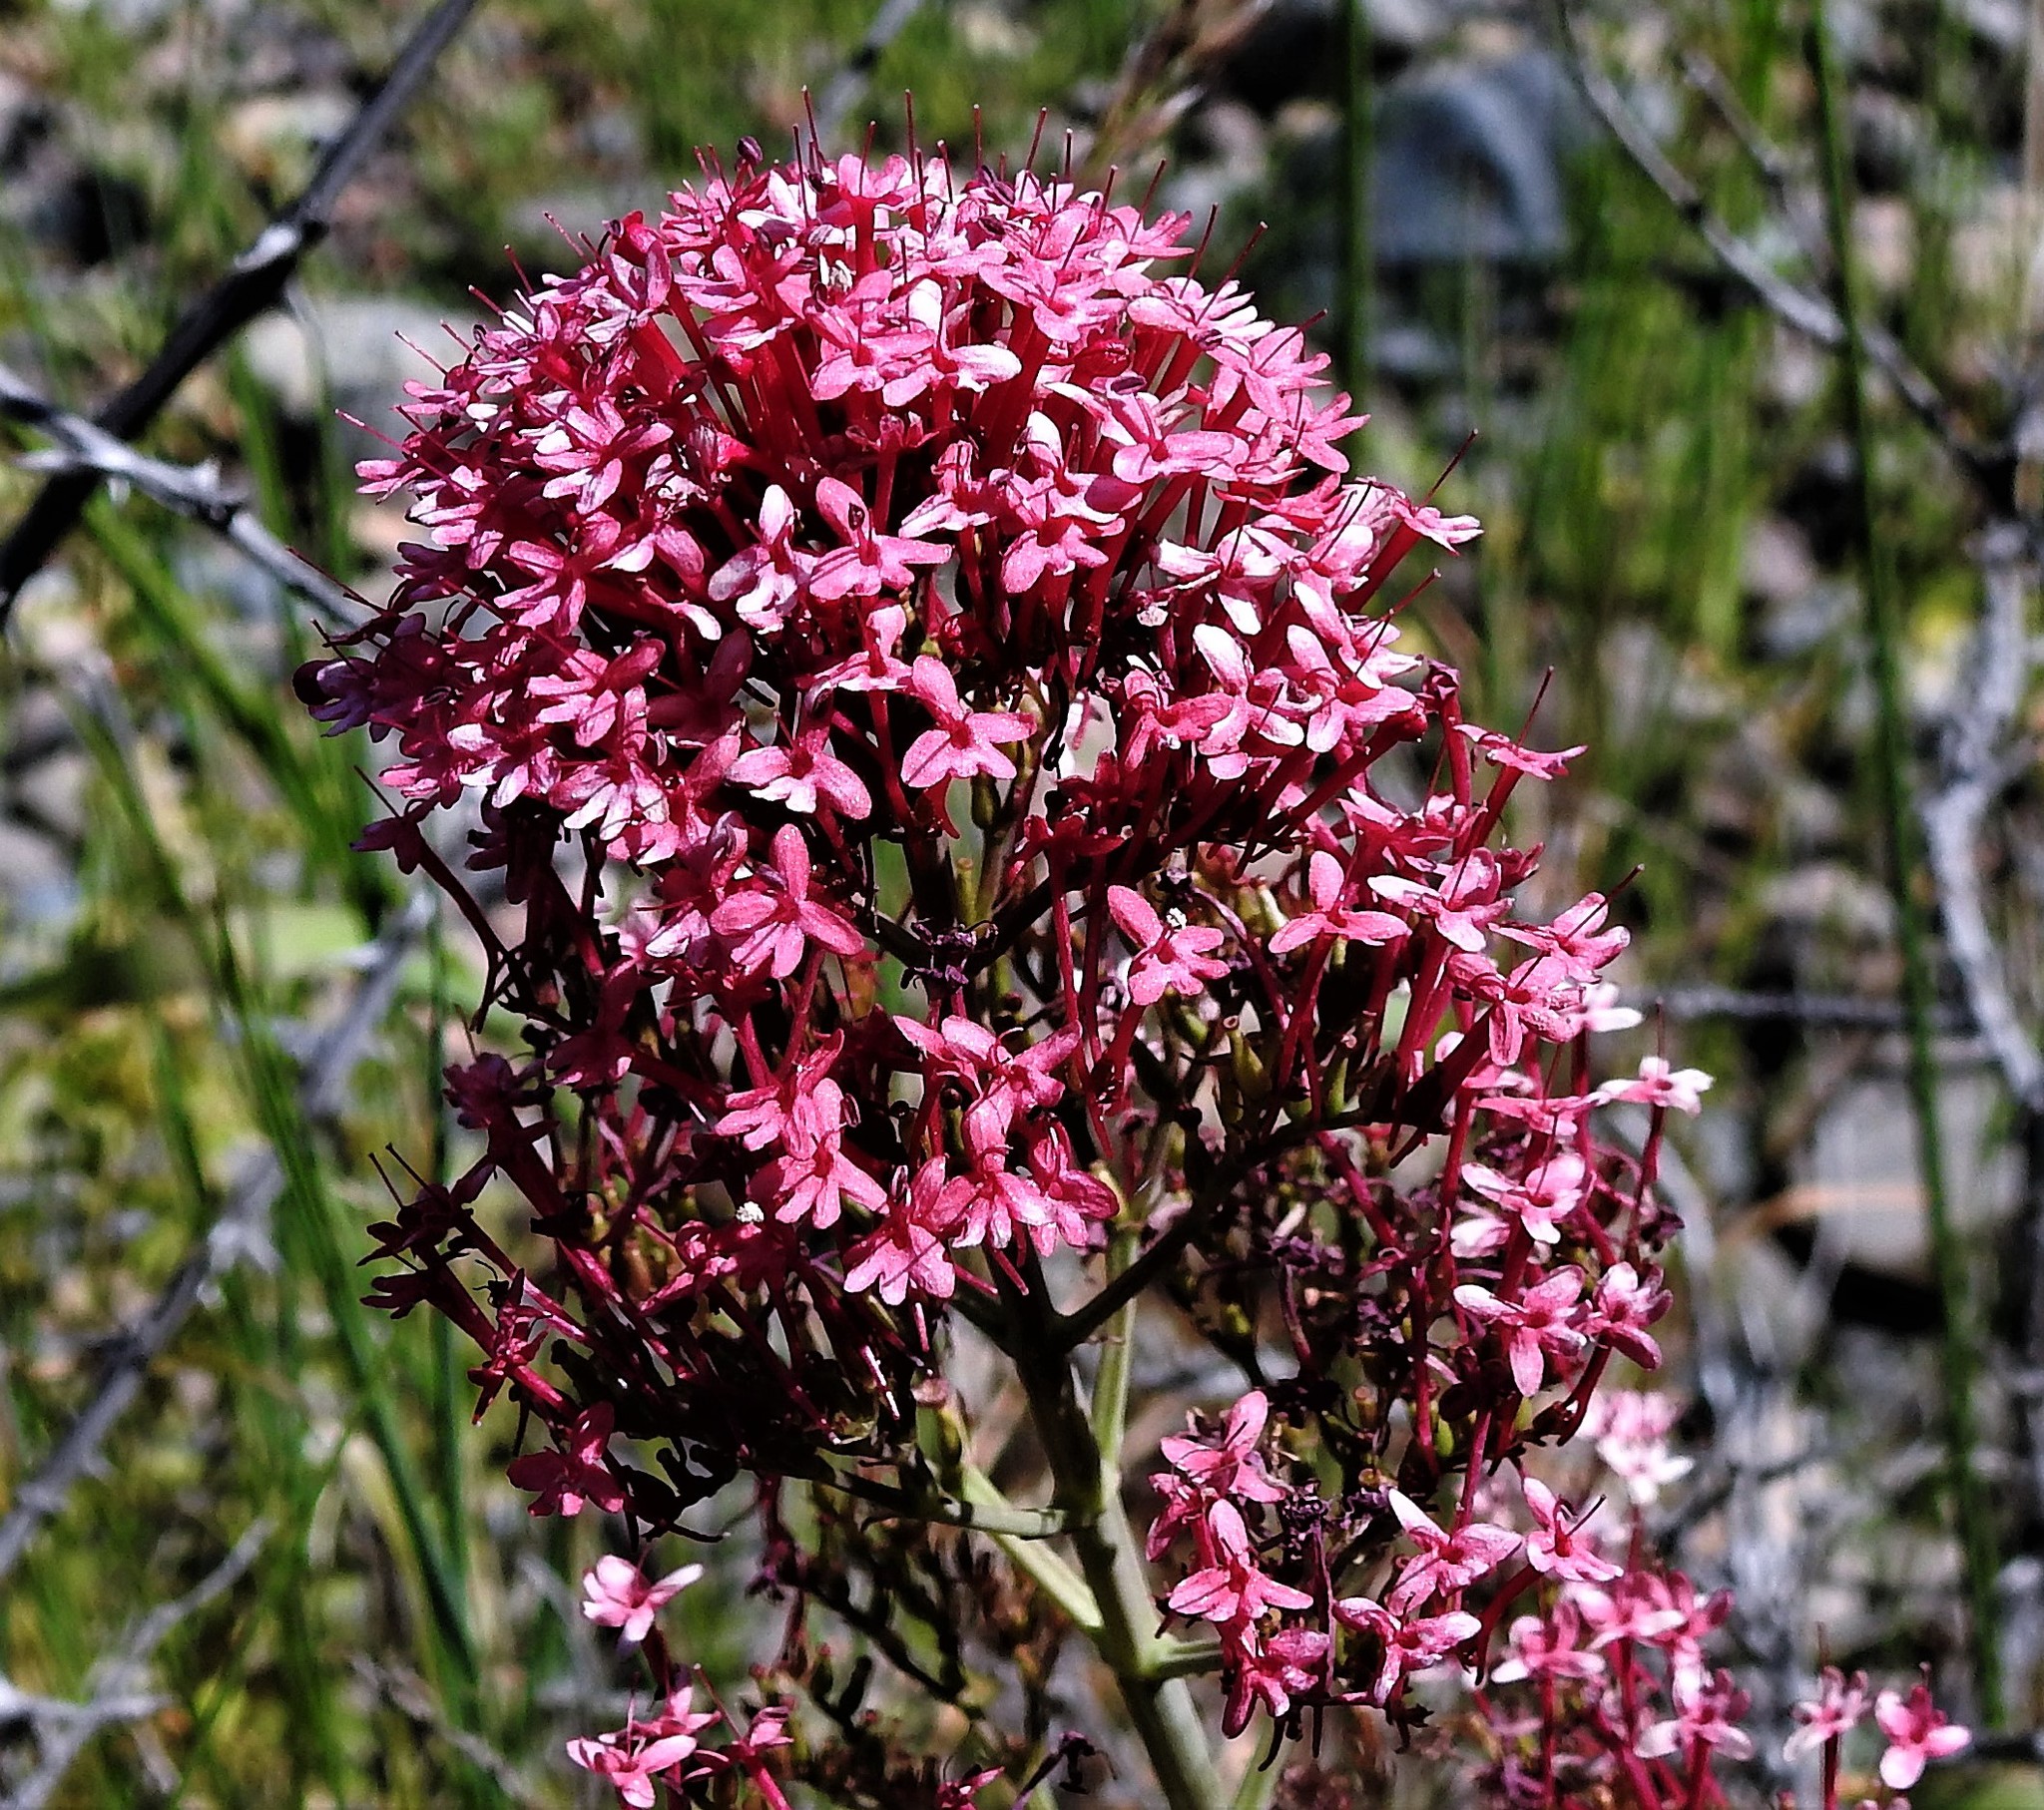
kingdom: Plantae
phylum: Tracheophyta
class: Magnoliopsida
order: Dipsacales
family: Caprifoliaceae
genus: Centranthus
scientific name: Centranthus ruber
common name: Red valerian
